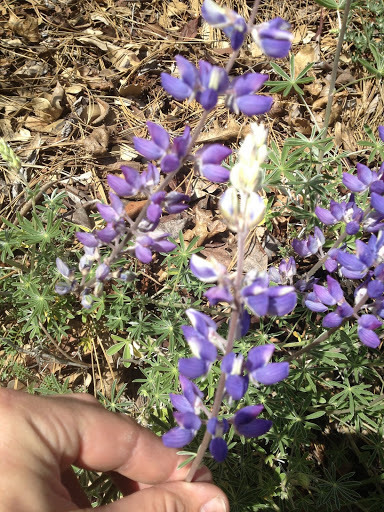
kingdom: Plantae
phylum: Tracheophyta
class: Magnoliopsida
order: Fabales
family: Fabaceae
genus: Lupinus
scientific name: Lupinus benthamii
